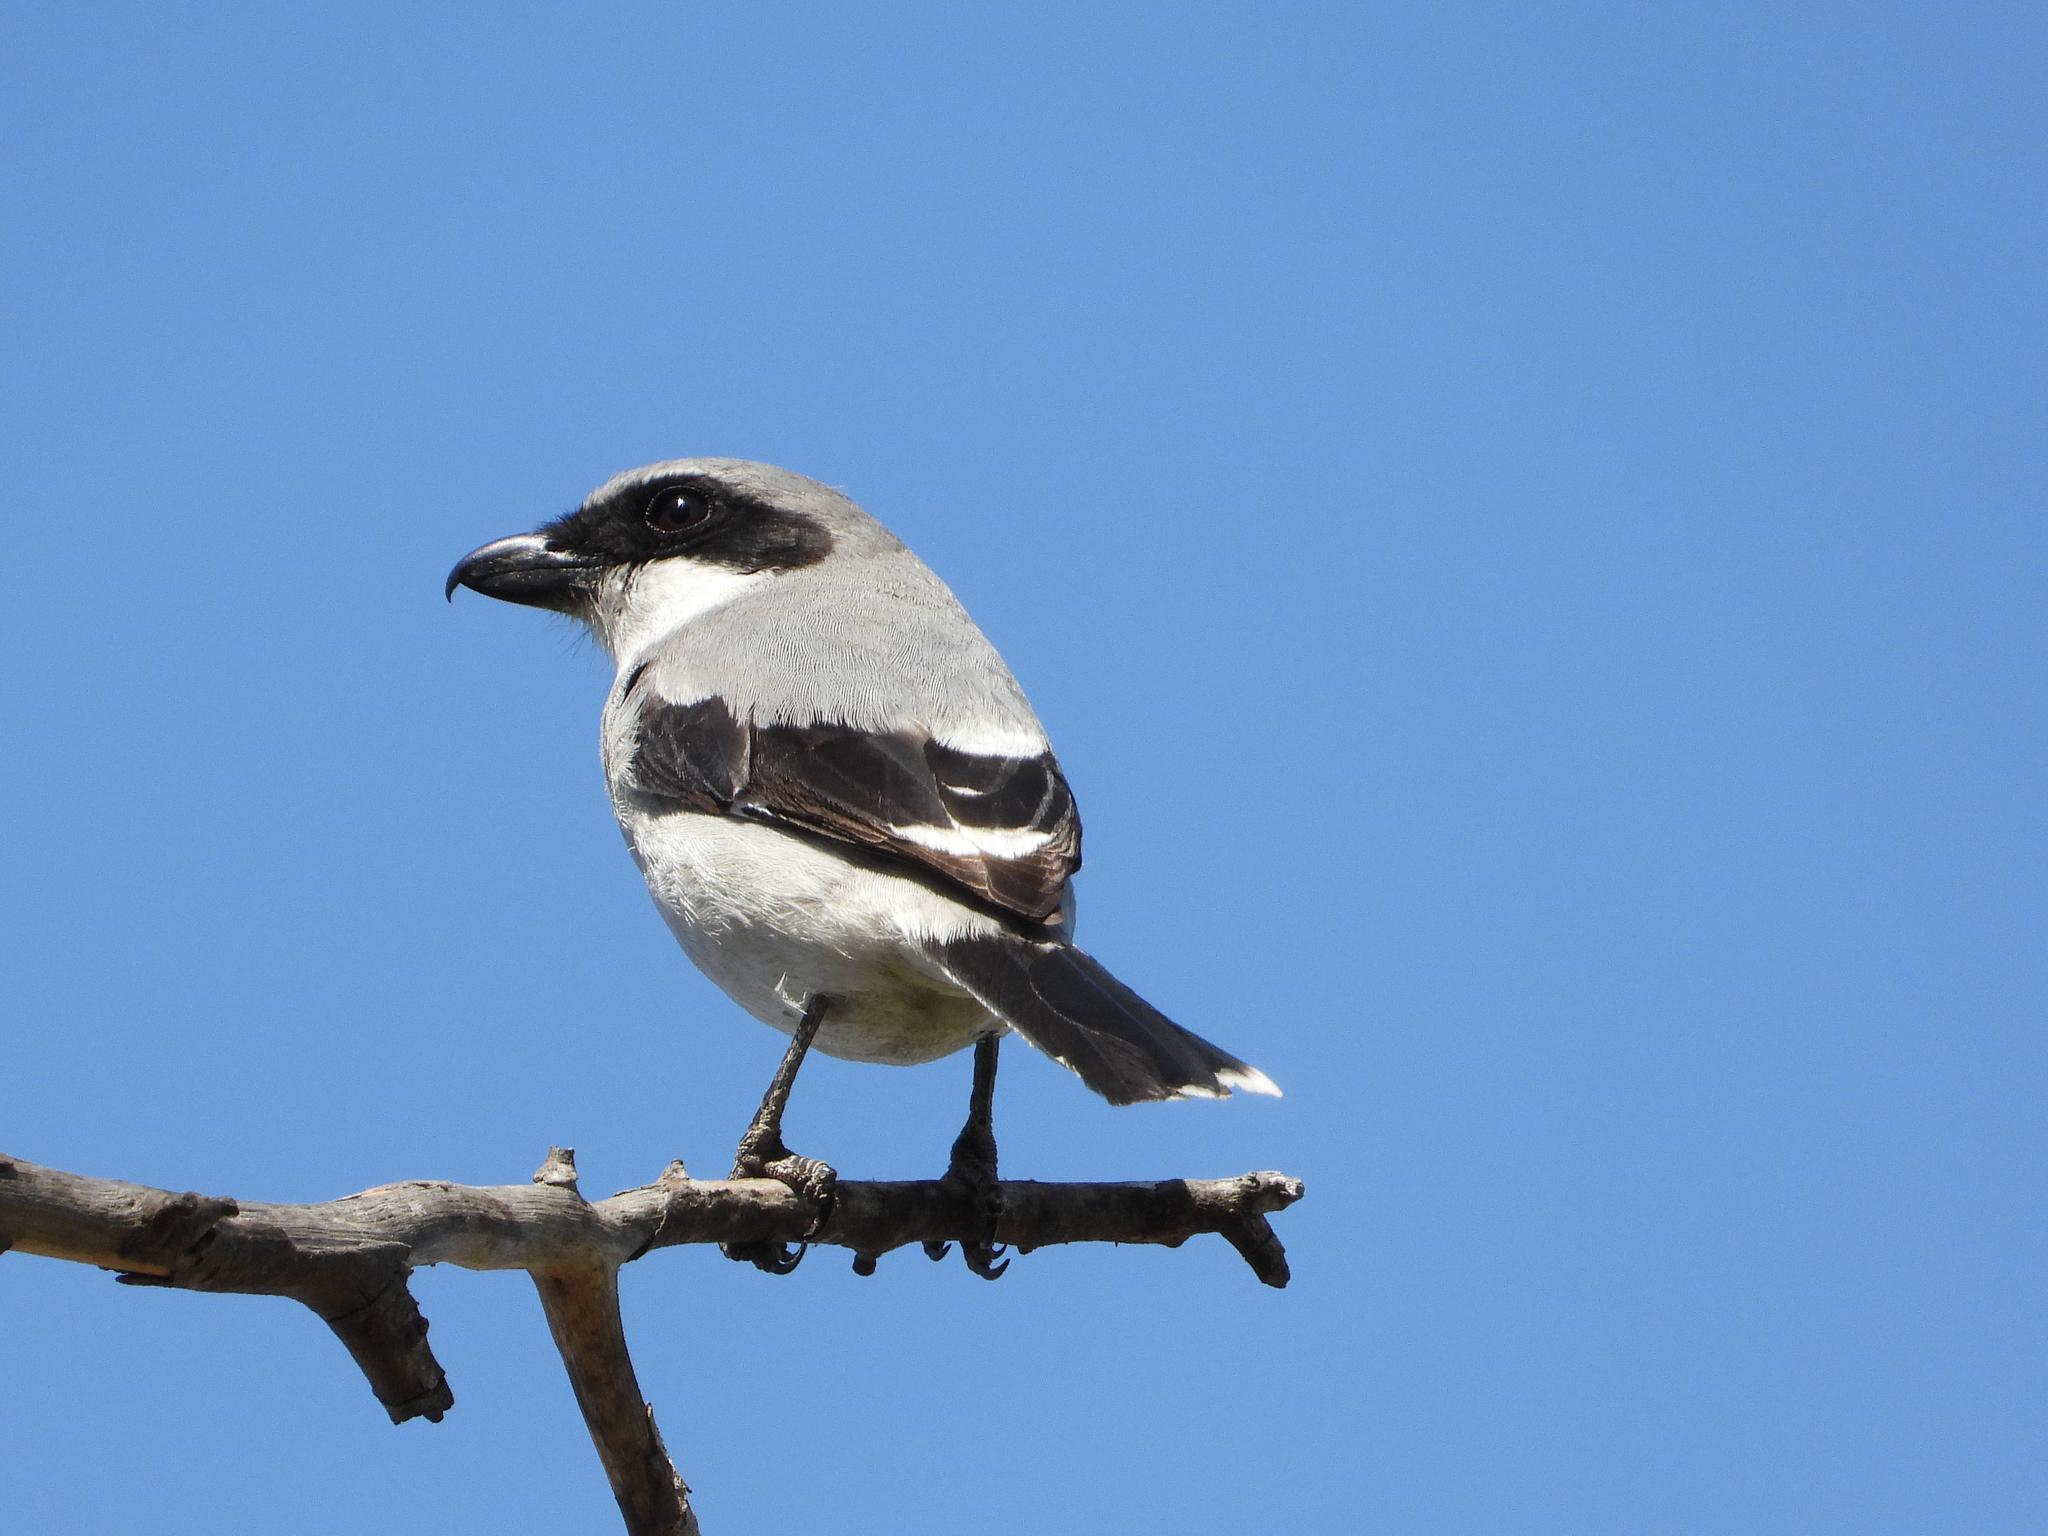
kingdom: Animalia
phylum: Chordata
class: Aves
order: Passeriformes
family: Laniidae
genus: Lanius
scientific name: Lanius ludovicianus
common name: Loggerhead shrike
